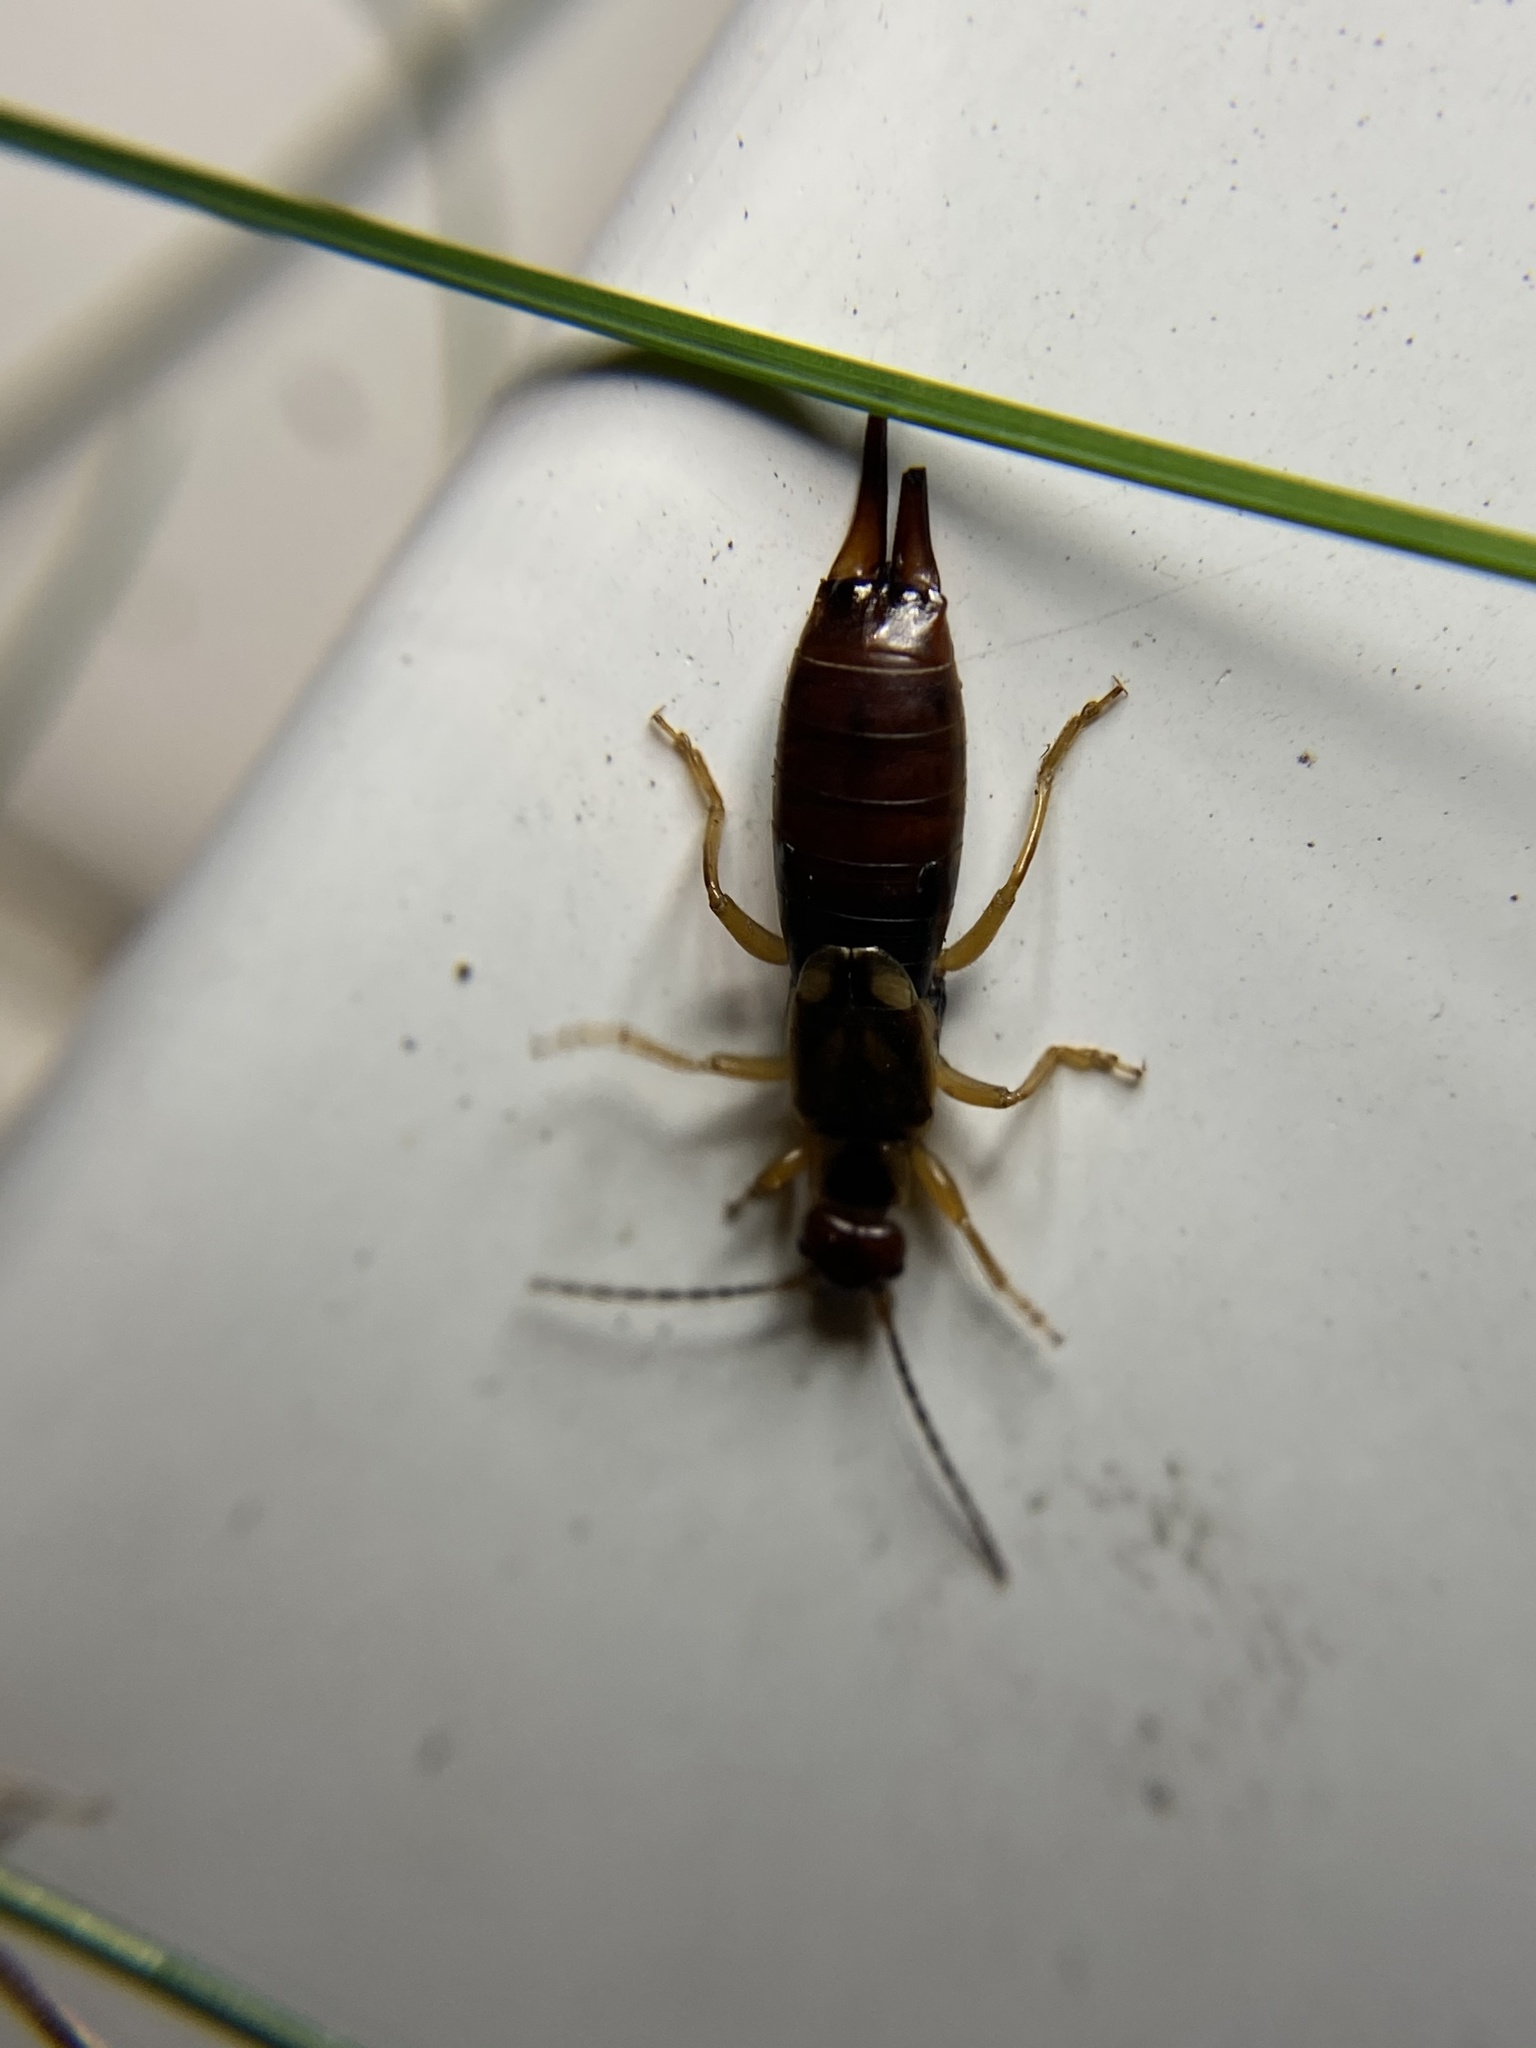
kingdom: Animalia
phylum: Arthropoda
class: Insecta
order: Dermaptera
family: Forficulidae
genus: Forficula
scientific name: Forficula
